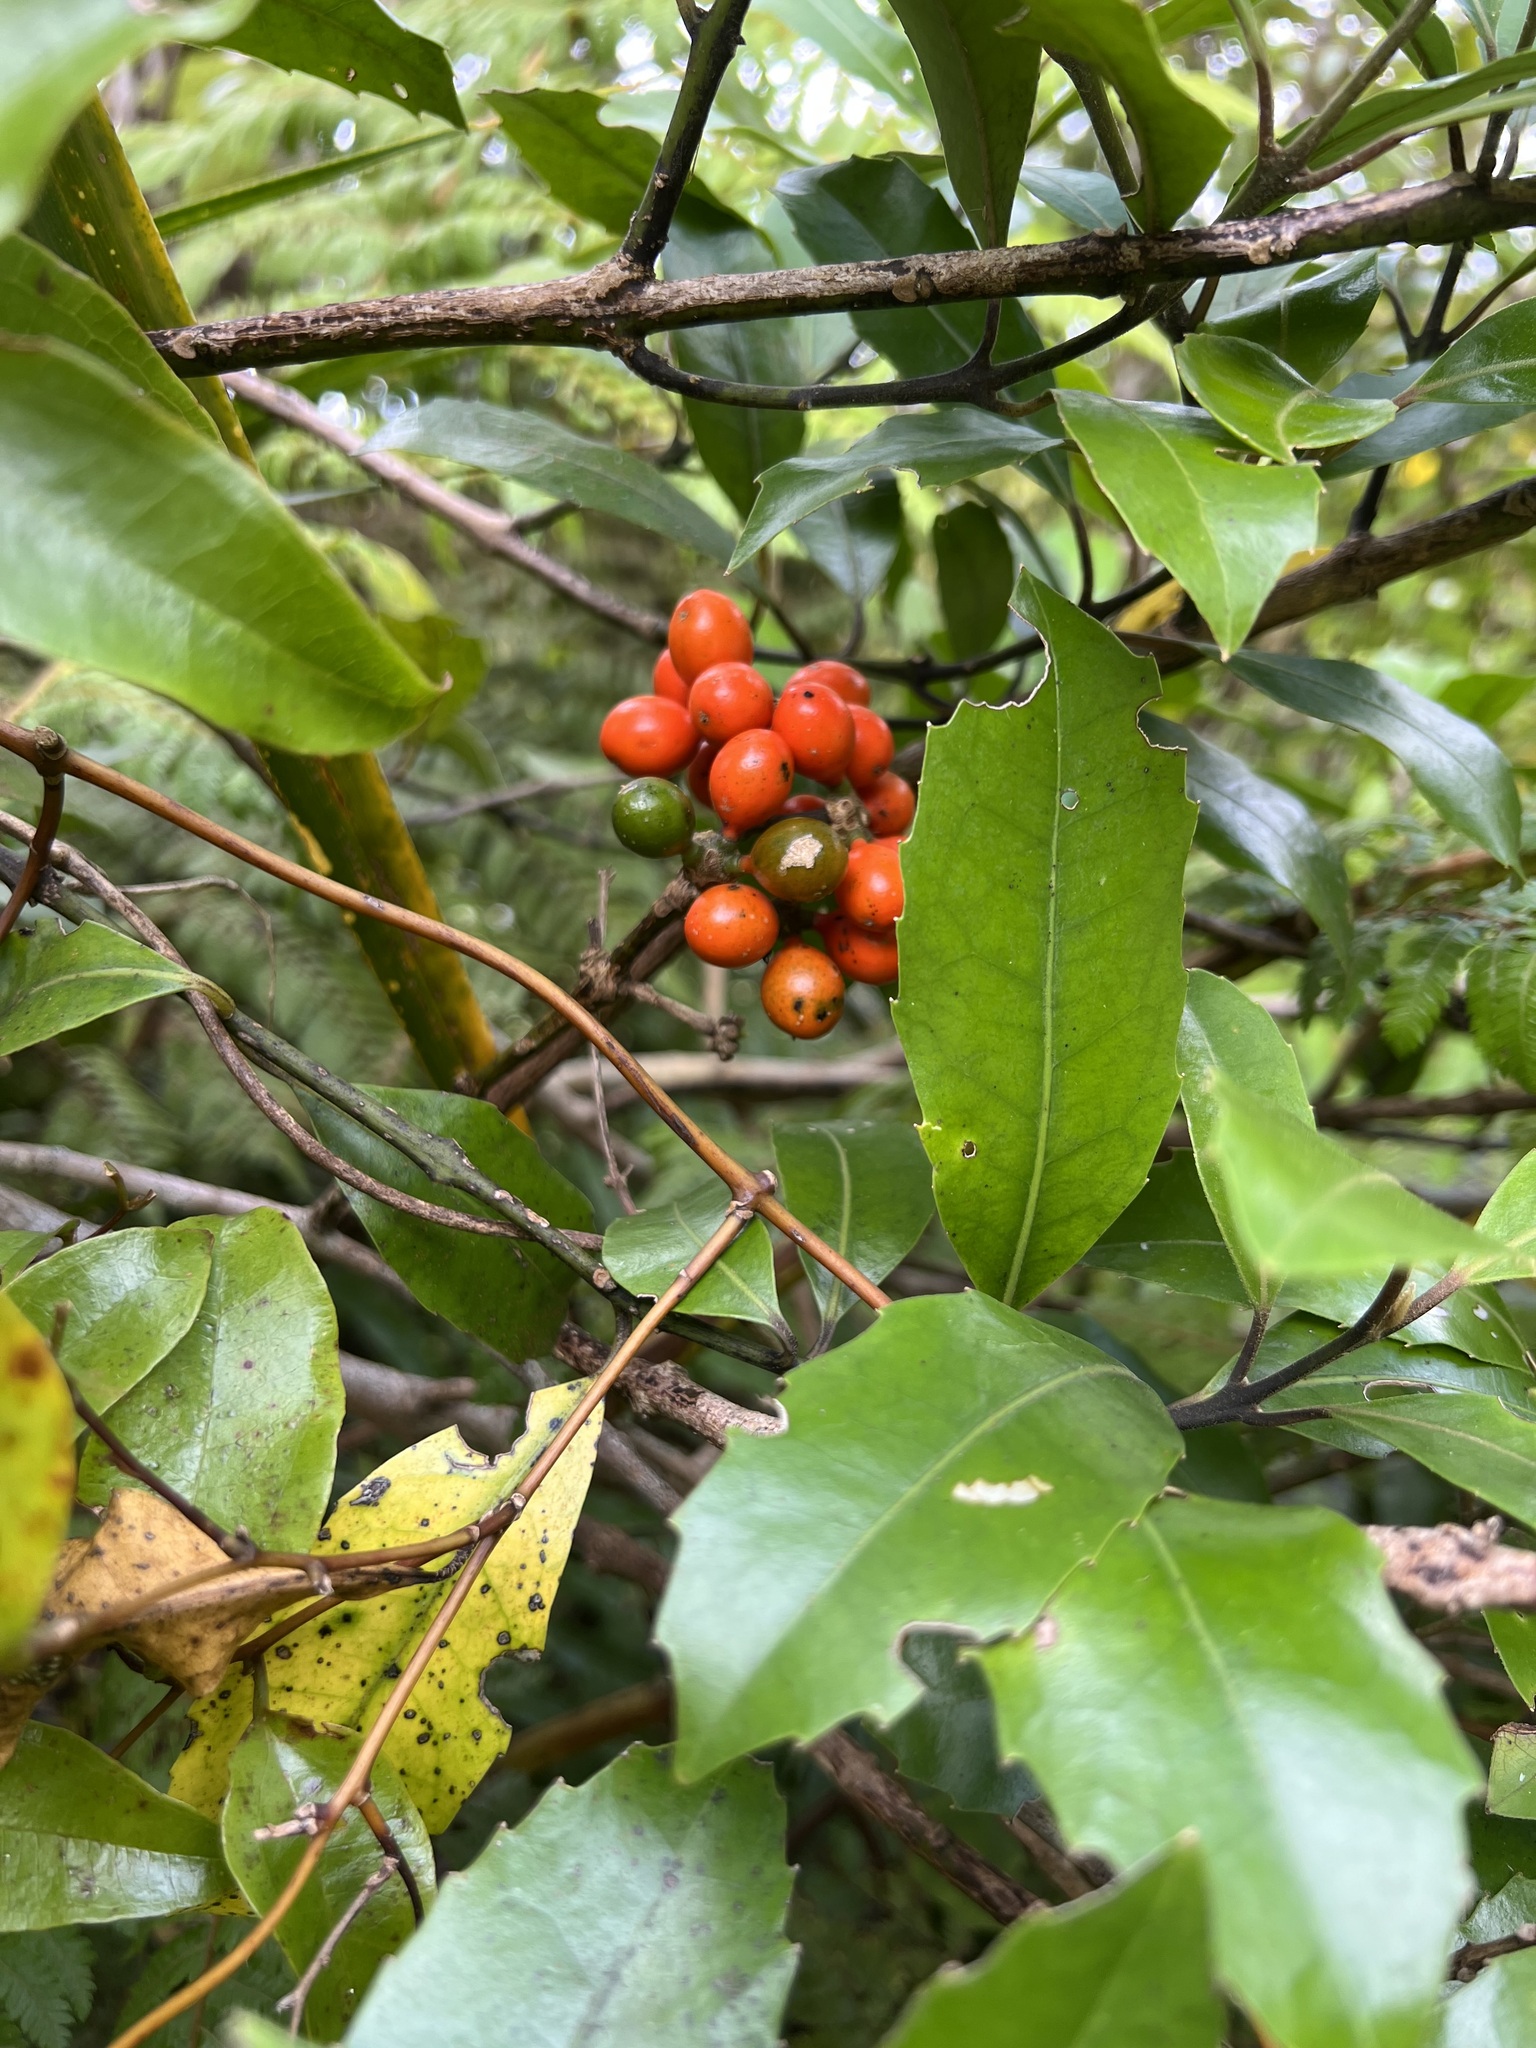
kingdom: Plantae
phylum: Tracheophyta
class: Magnoliopsida
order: Laurales
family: Monimiaceae
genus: Hedycarya
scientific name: Hedycarya arborea
